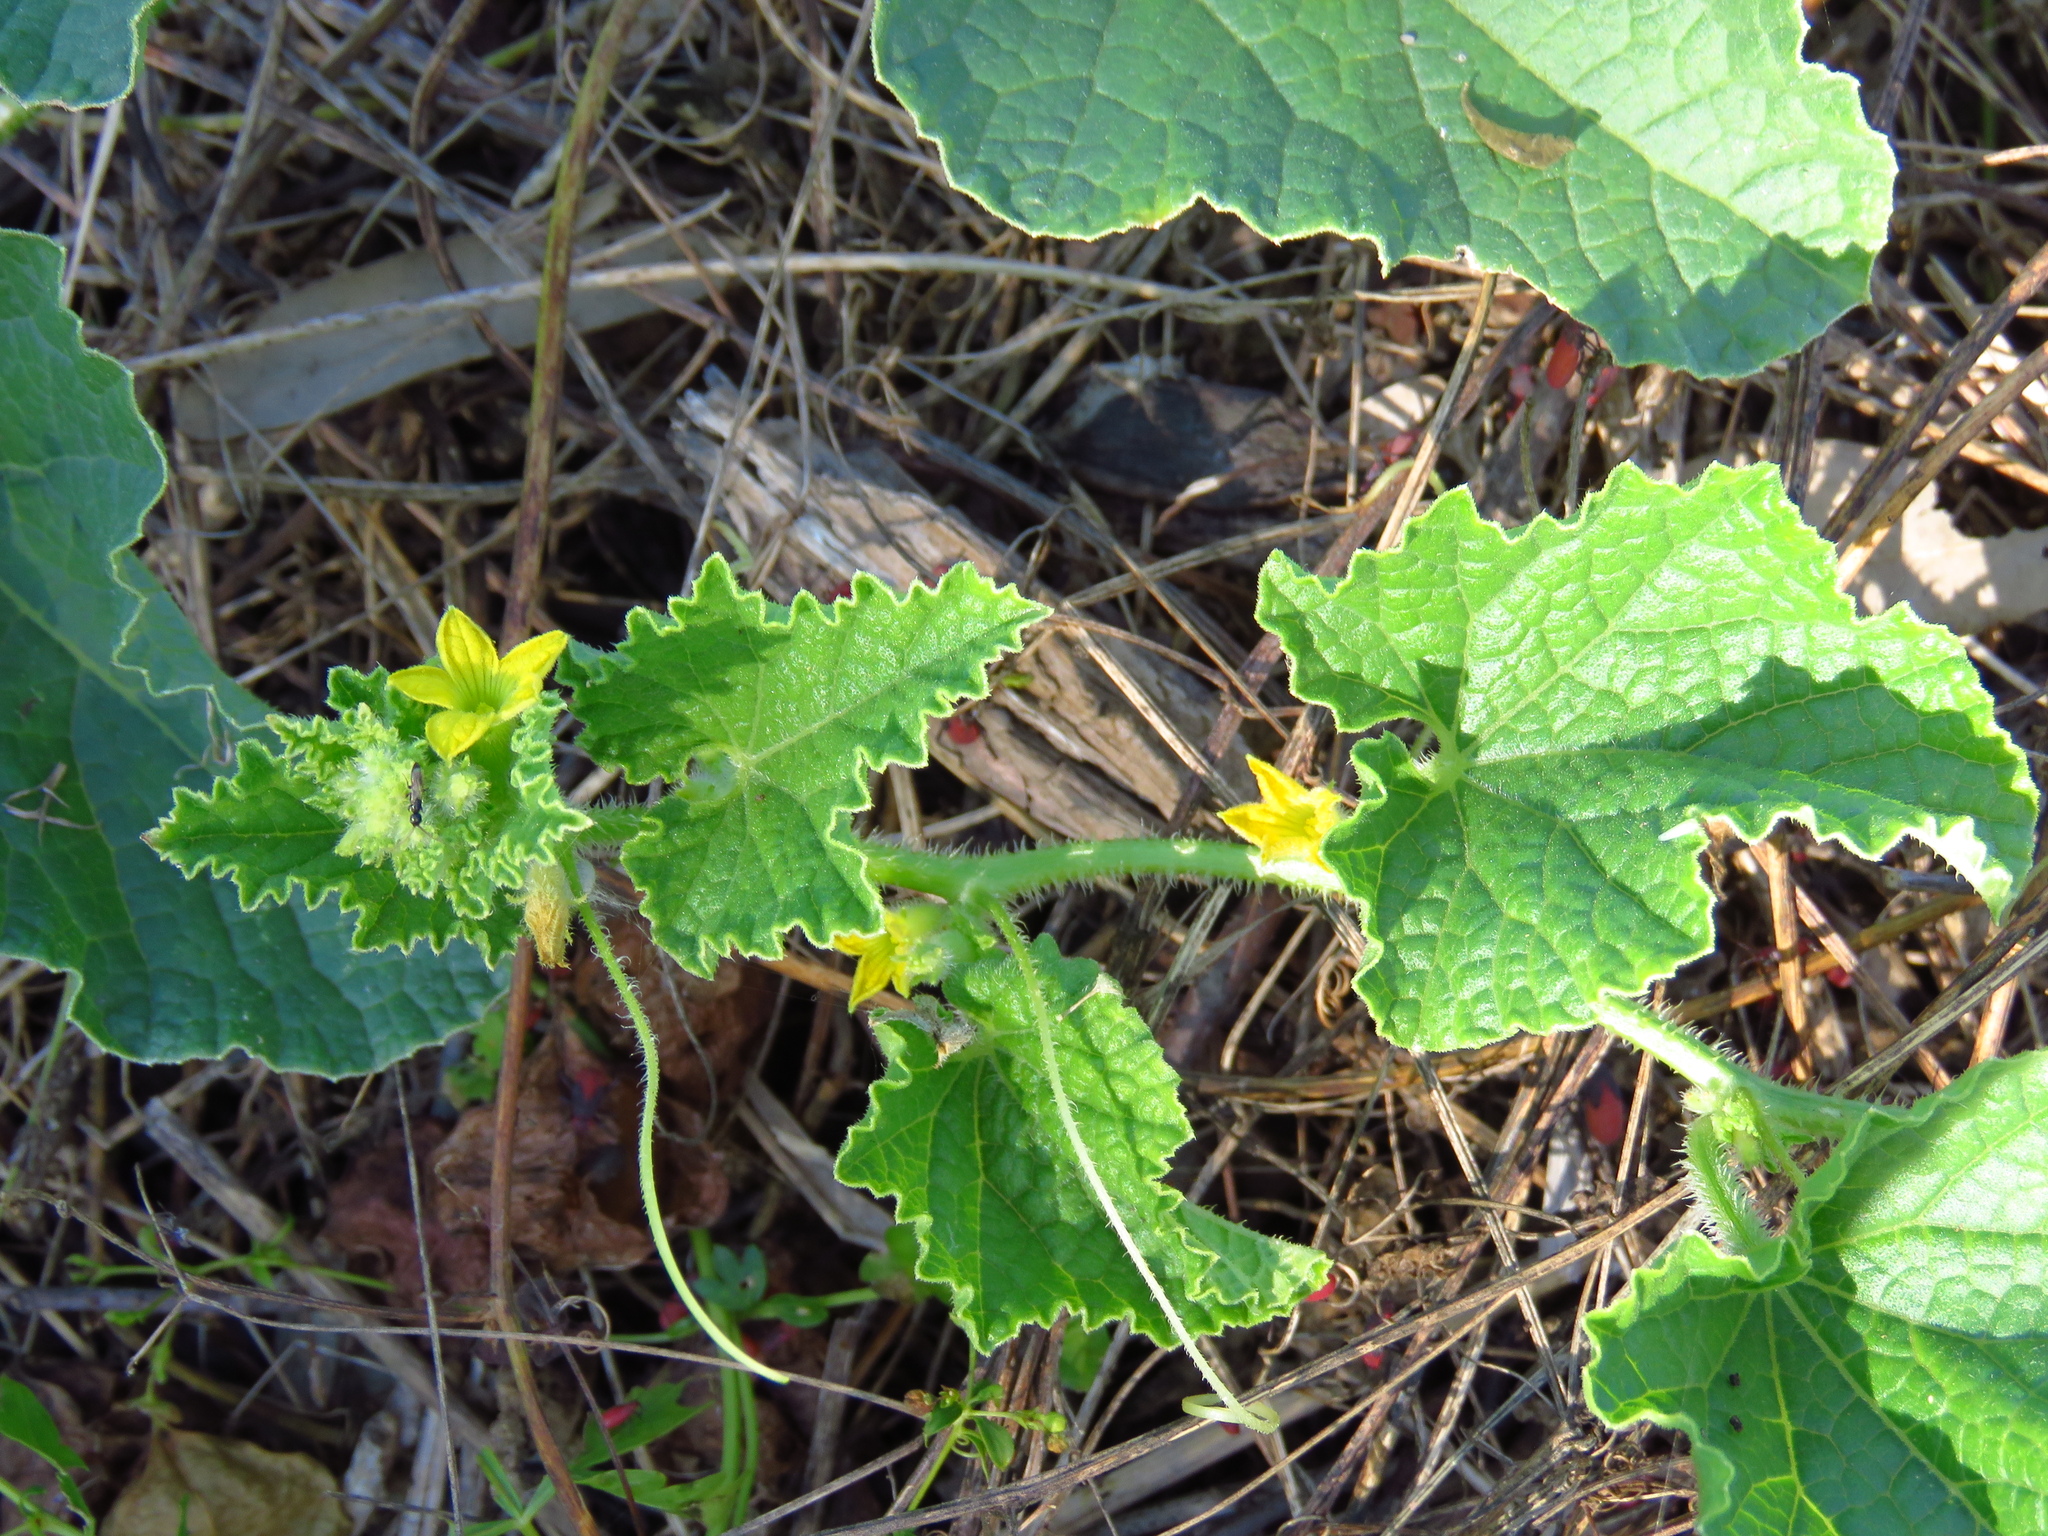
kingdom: Plantae
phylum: Tracheophyta
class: Magnoliopsida
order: Cucurbitales
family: Cucurbitaceae
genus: Cucumis
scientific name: Cucumis melo
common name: Melon
